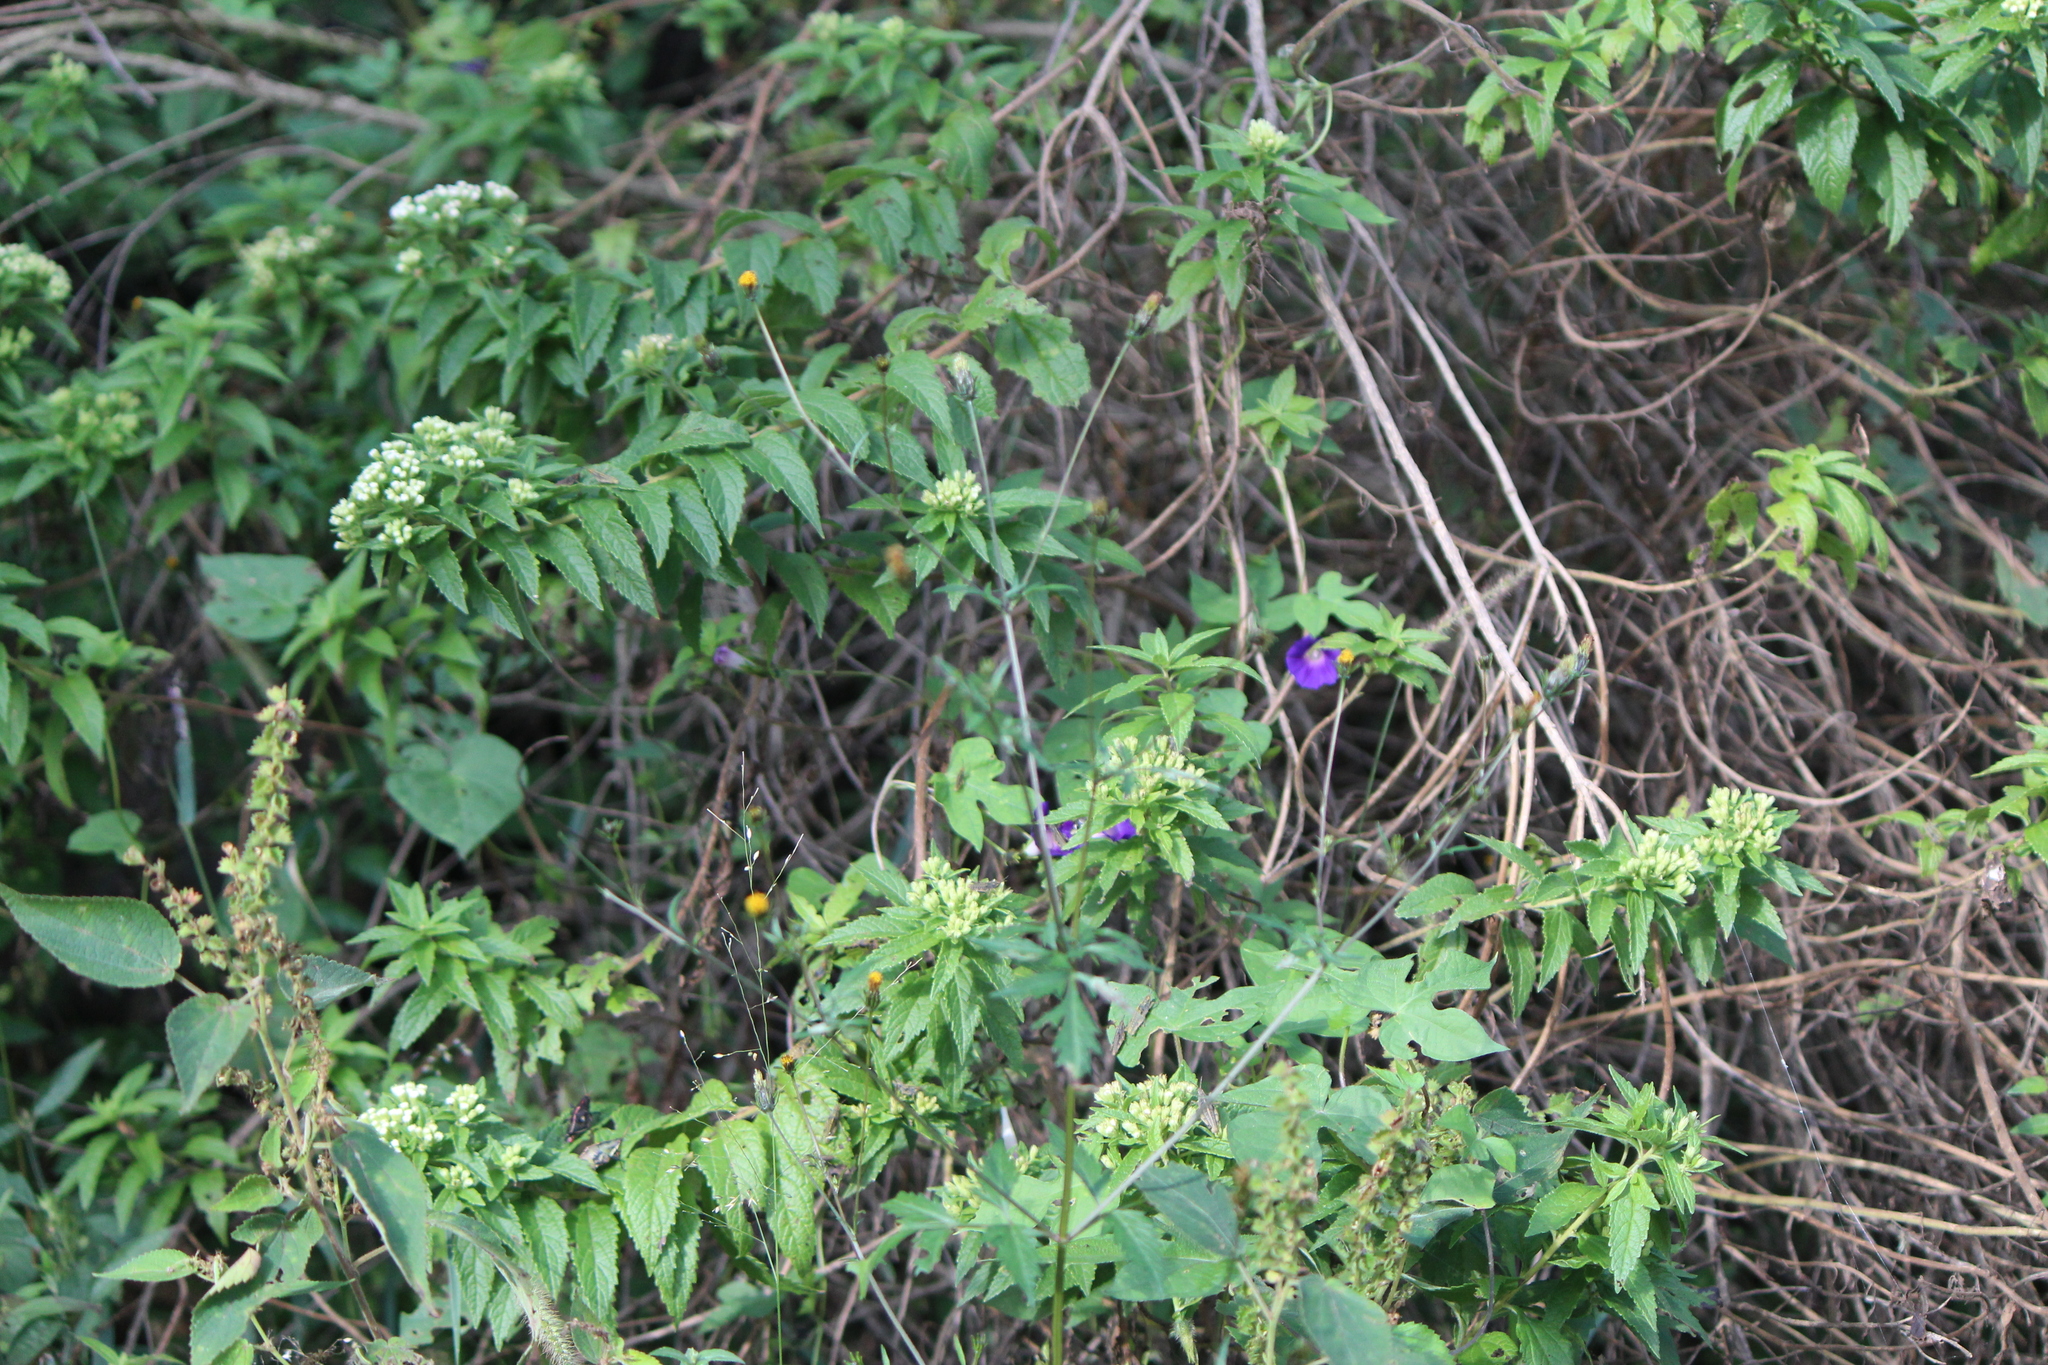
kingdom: Plantae
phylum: Tracheophyta
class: Magnoliopsida
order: Asterales
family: Asteraceae
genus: Ageratina
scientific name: Ageratina brevipes
